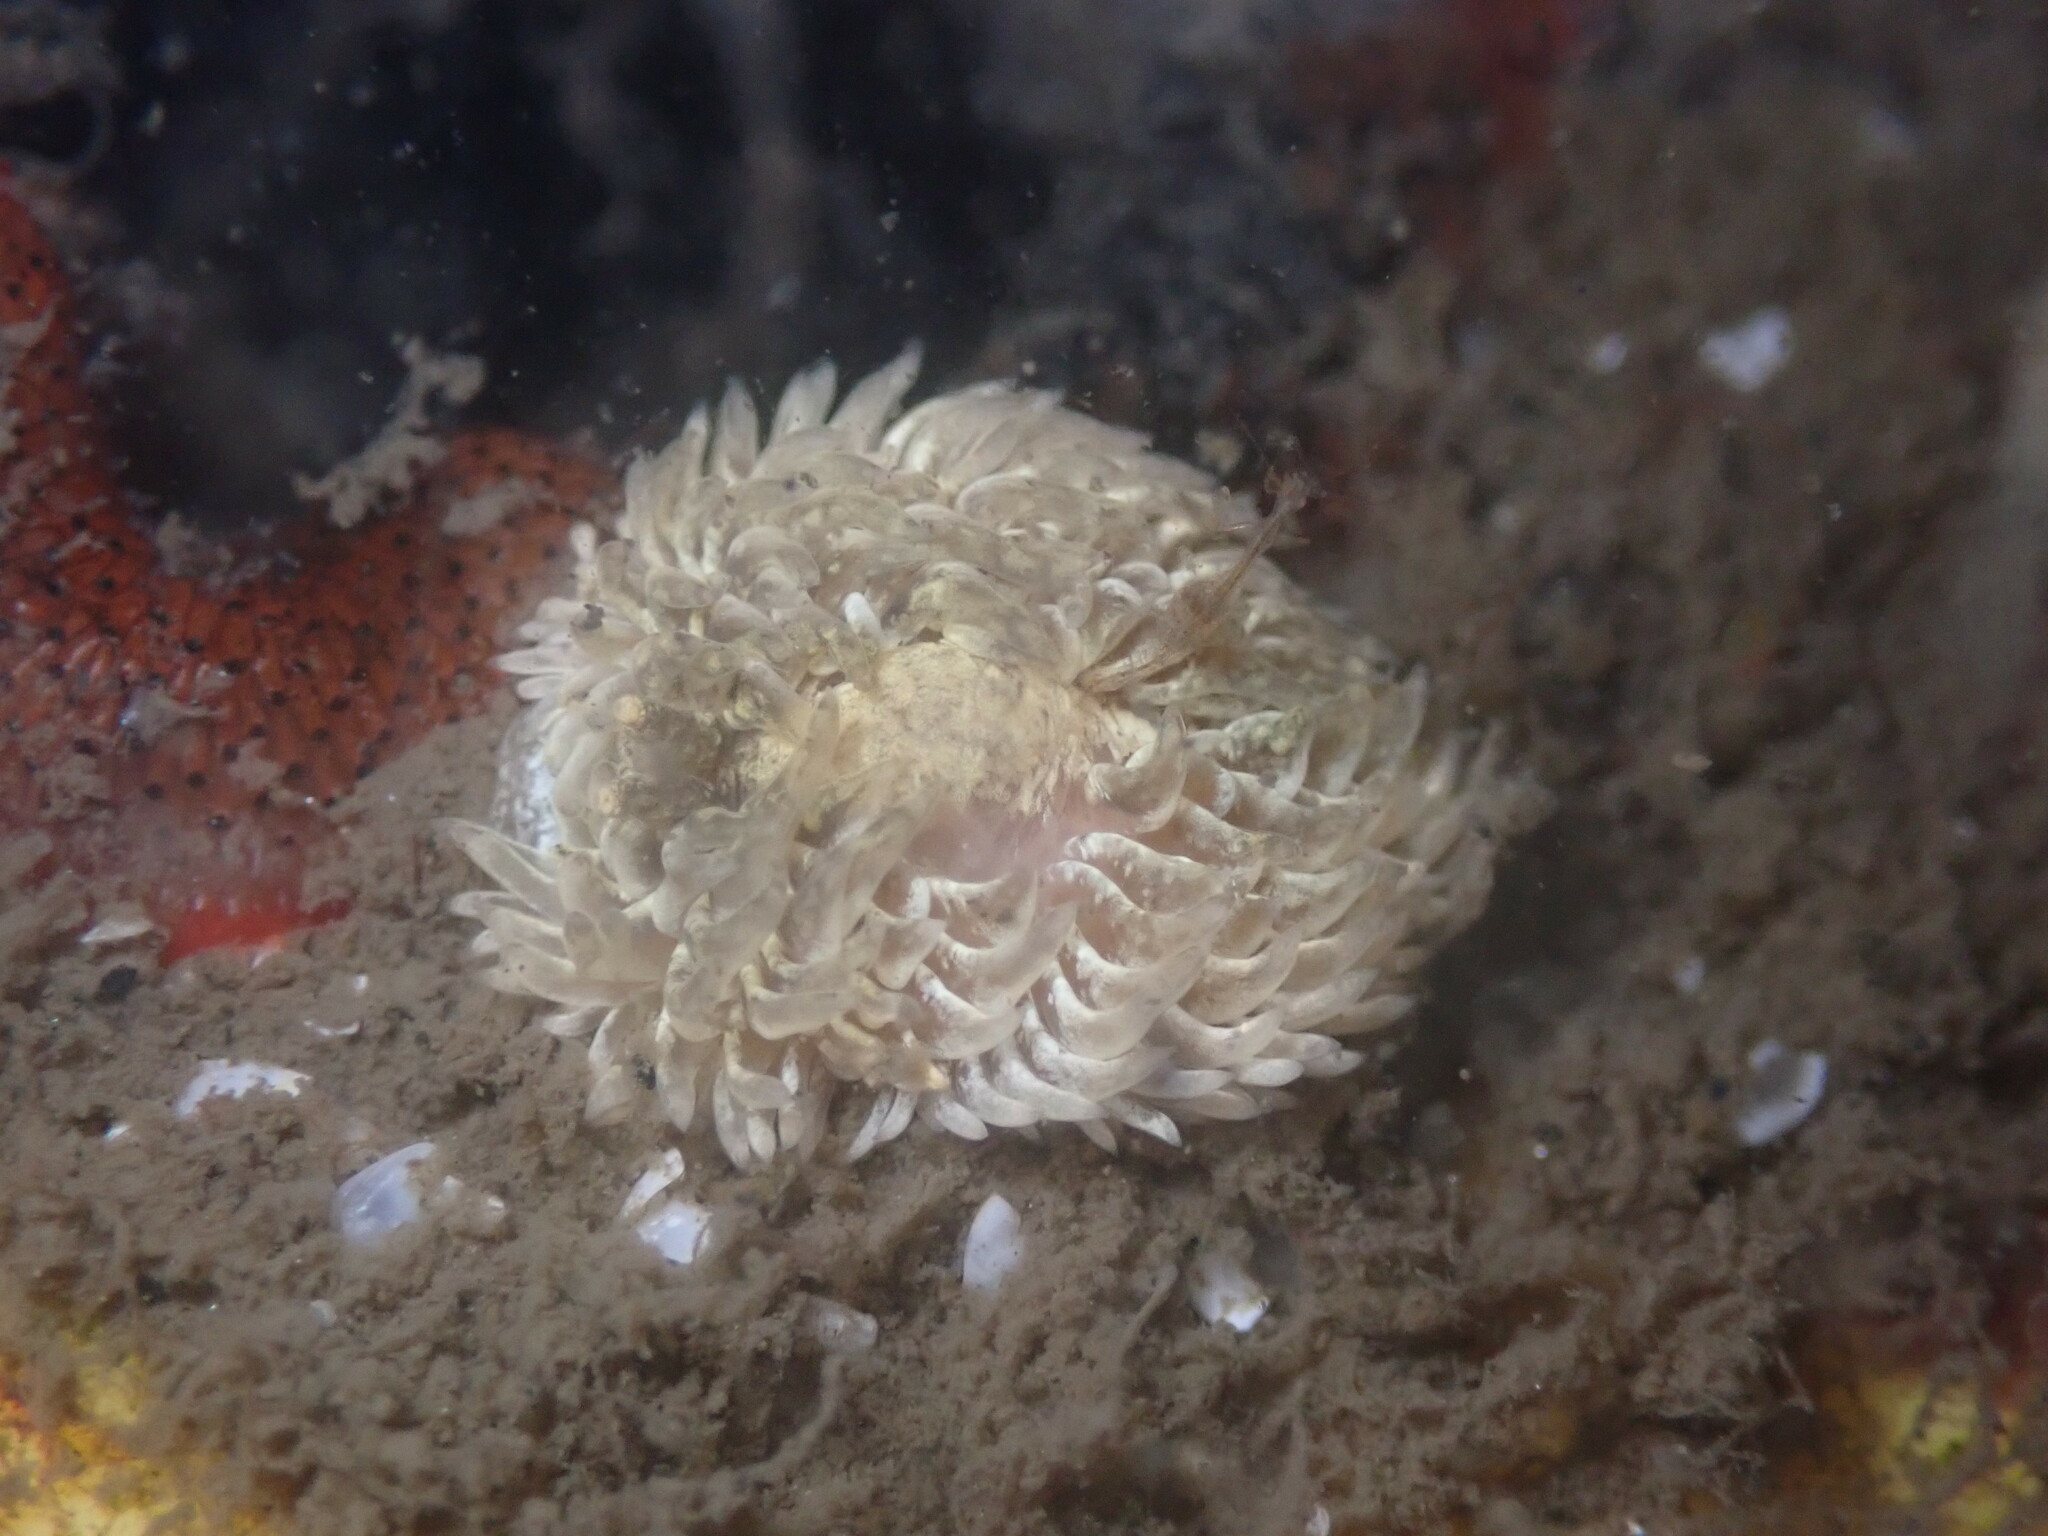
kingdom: Animalia
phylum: Mollusca
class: Gastropoda
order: Nudibranchia
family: Aeolidiidae
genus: Aeolidia
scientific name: Aeolidia loui
